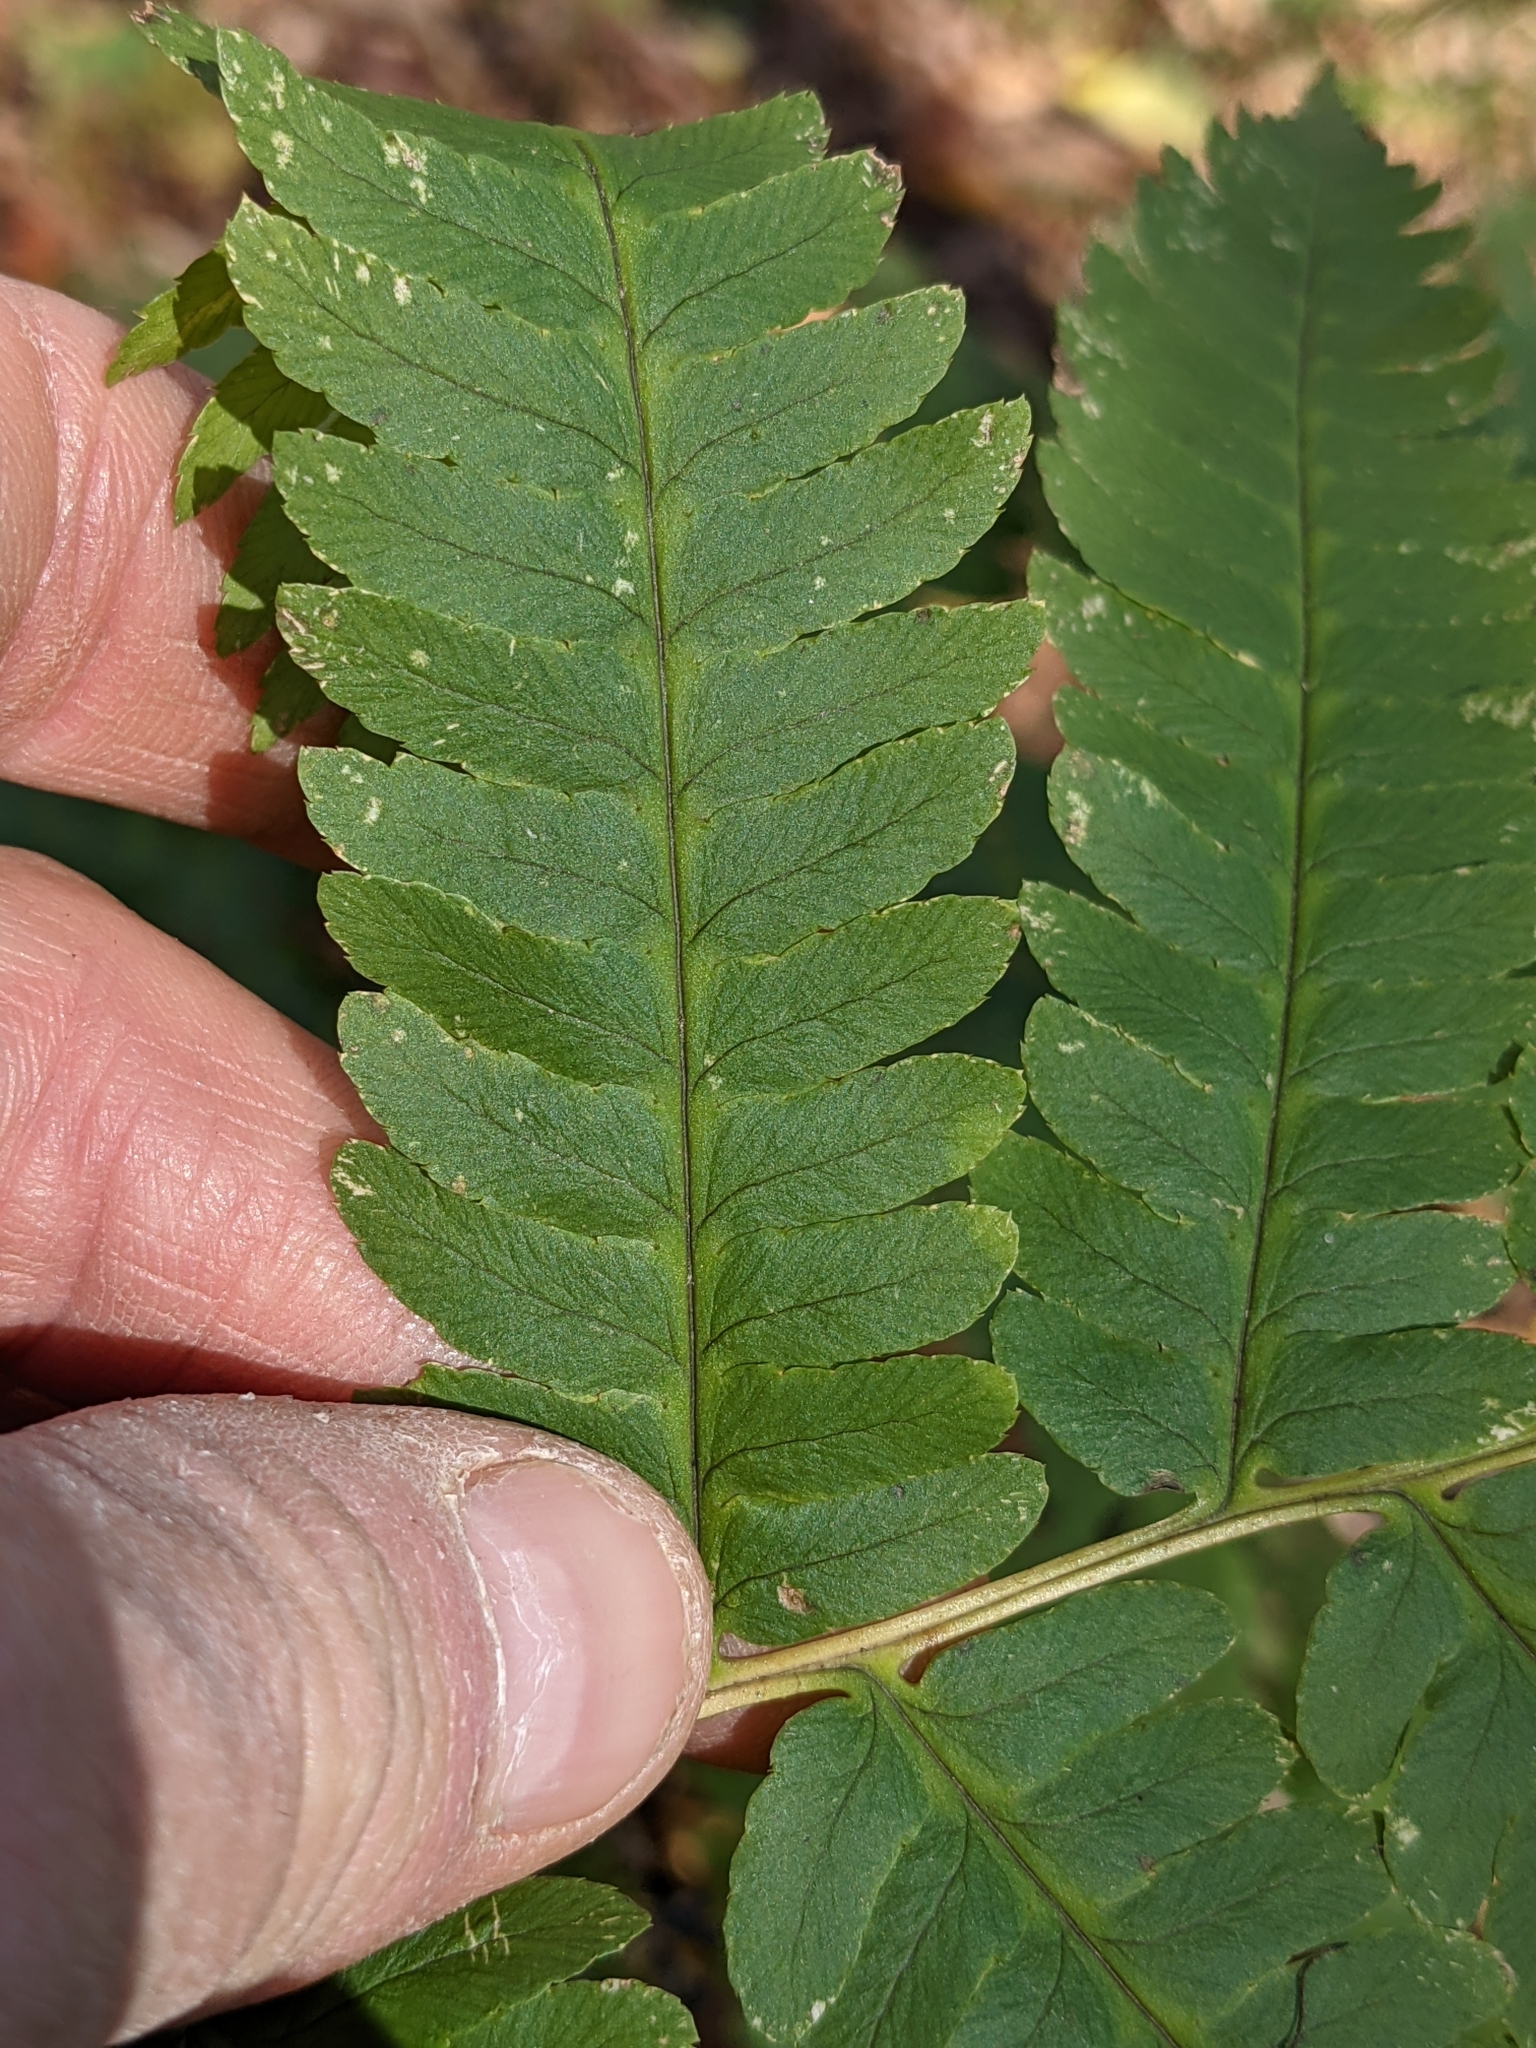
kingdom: Plantae
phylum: Tracheophyta
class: Polypodiopsida
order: Polypodiales
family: Dryopteridaceae
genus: Dryopteris
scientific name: Dryopteris goldieana
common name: Goldie's fern
